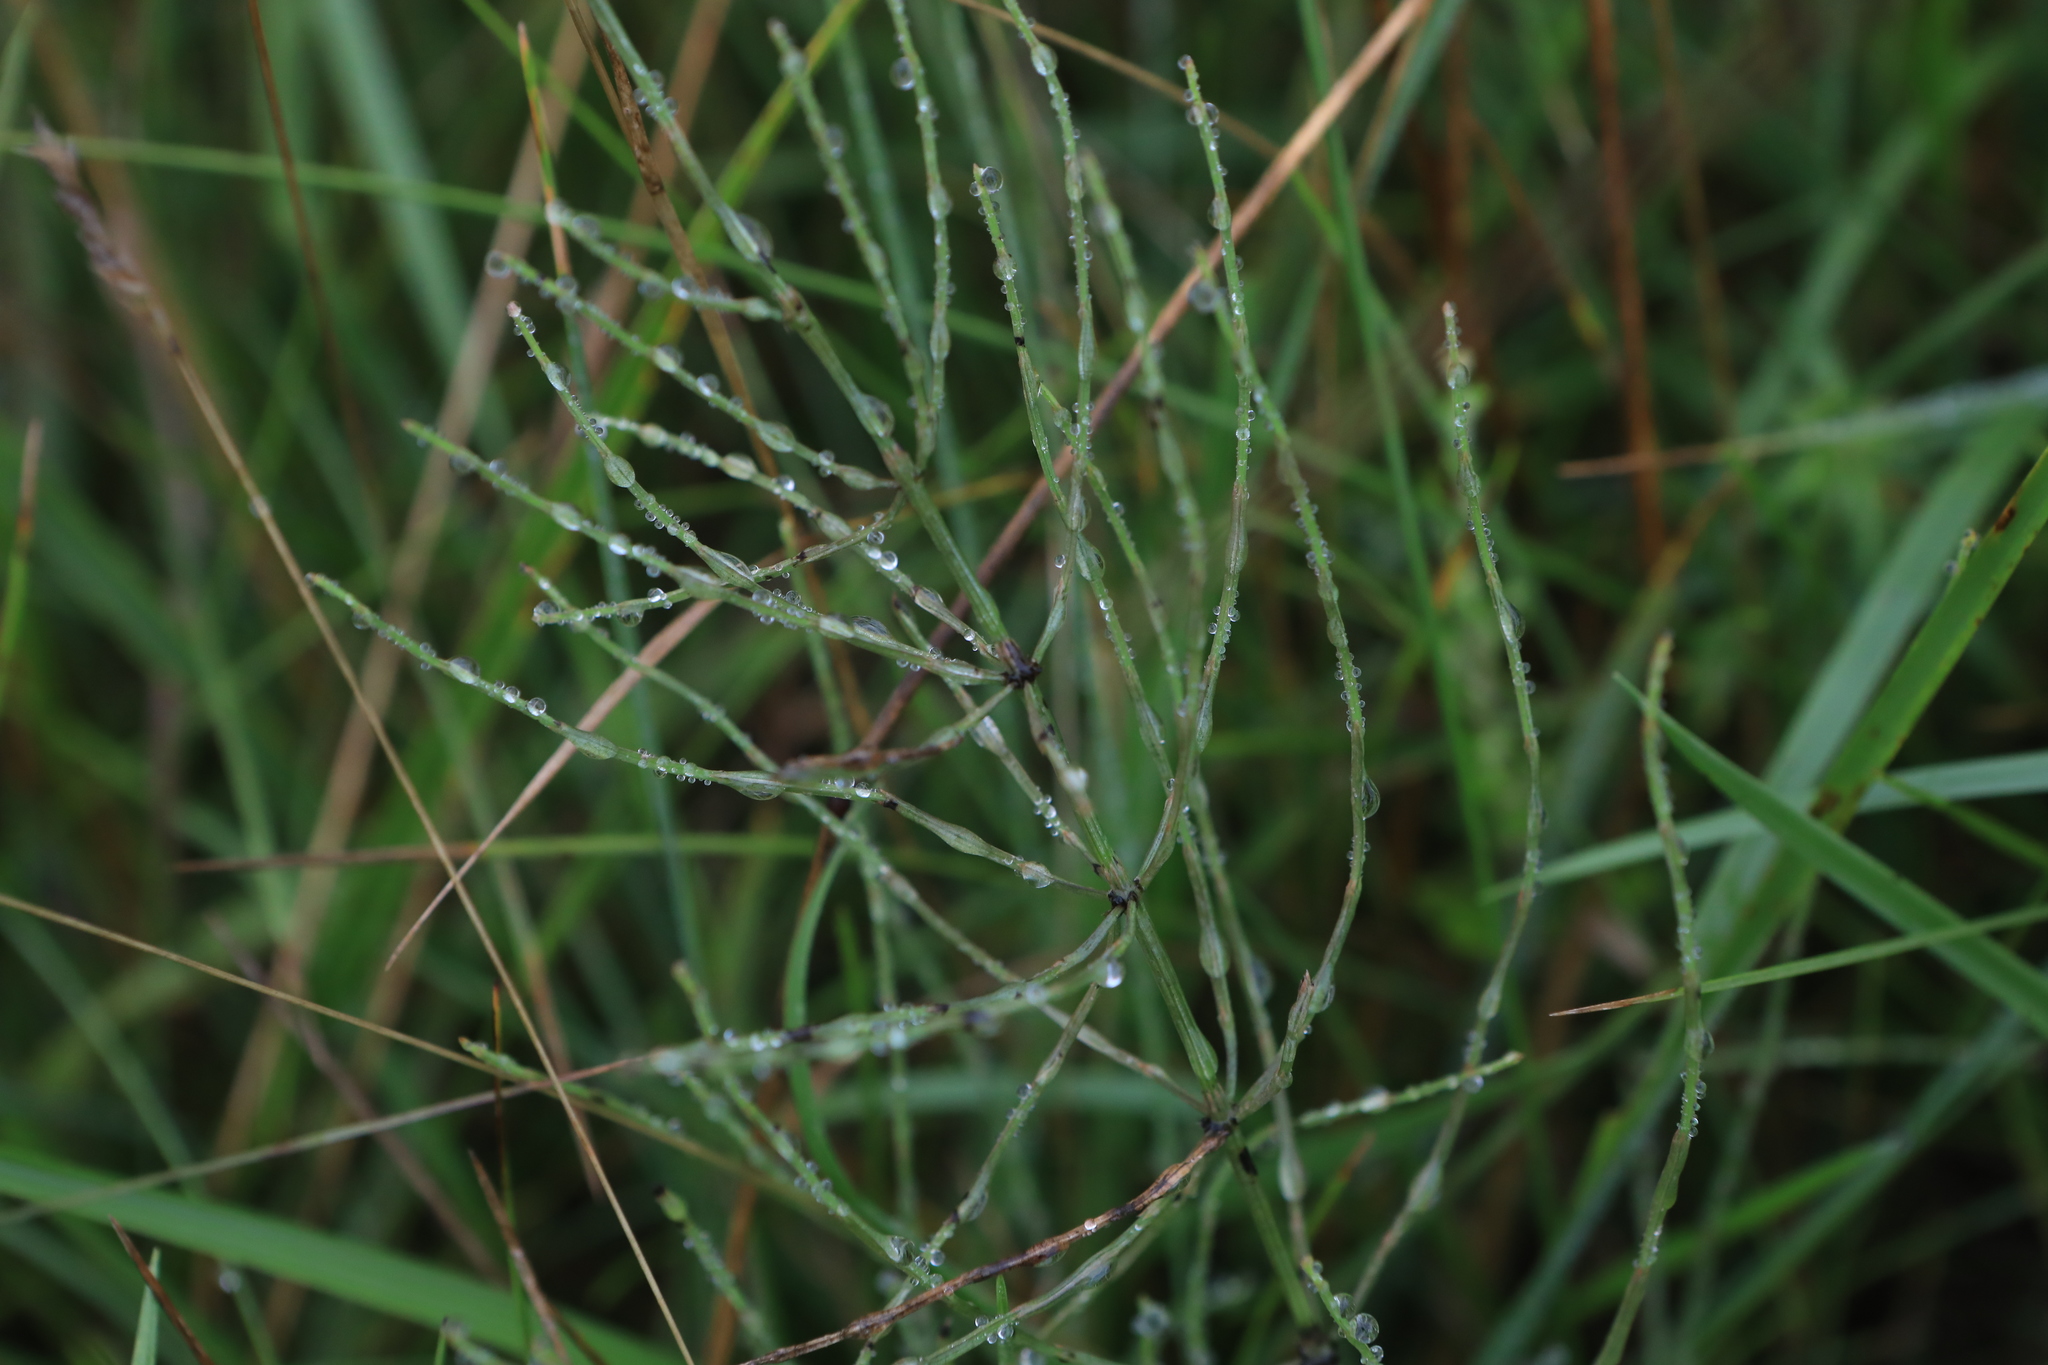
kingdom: Plantae
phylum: Tracheophyta
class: Polypodiopsida
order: Equisetales
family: Equisetaceae
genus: Equisetum
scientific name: Equisetum arvense
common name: Field horsetail
